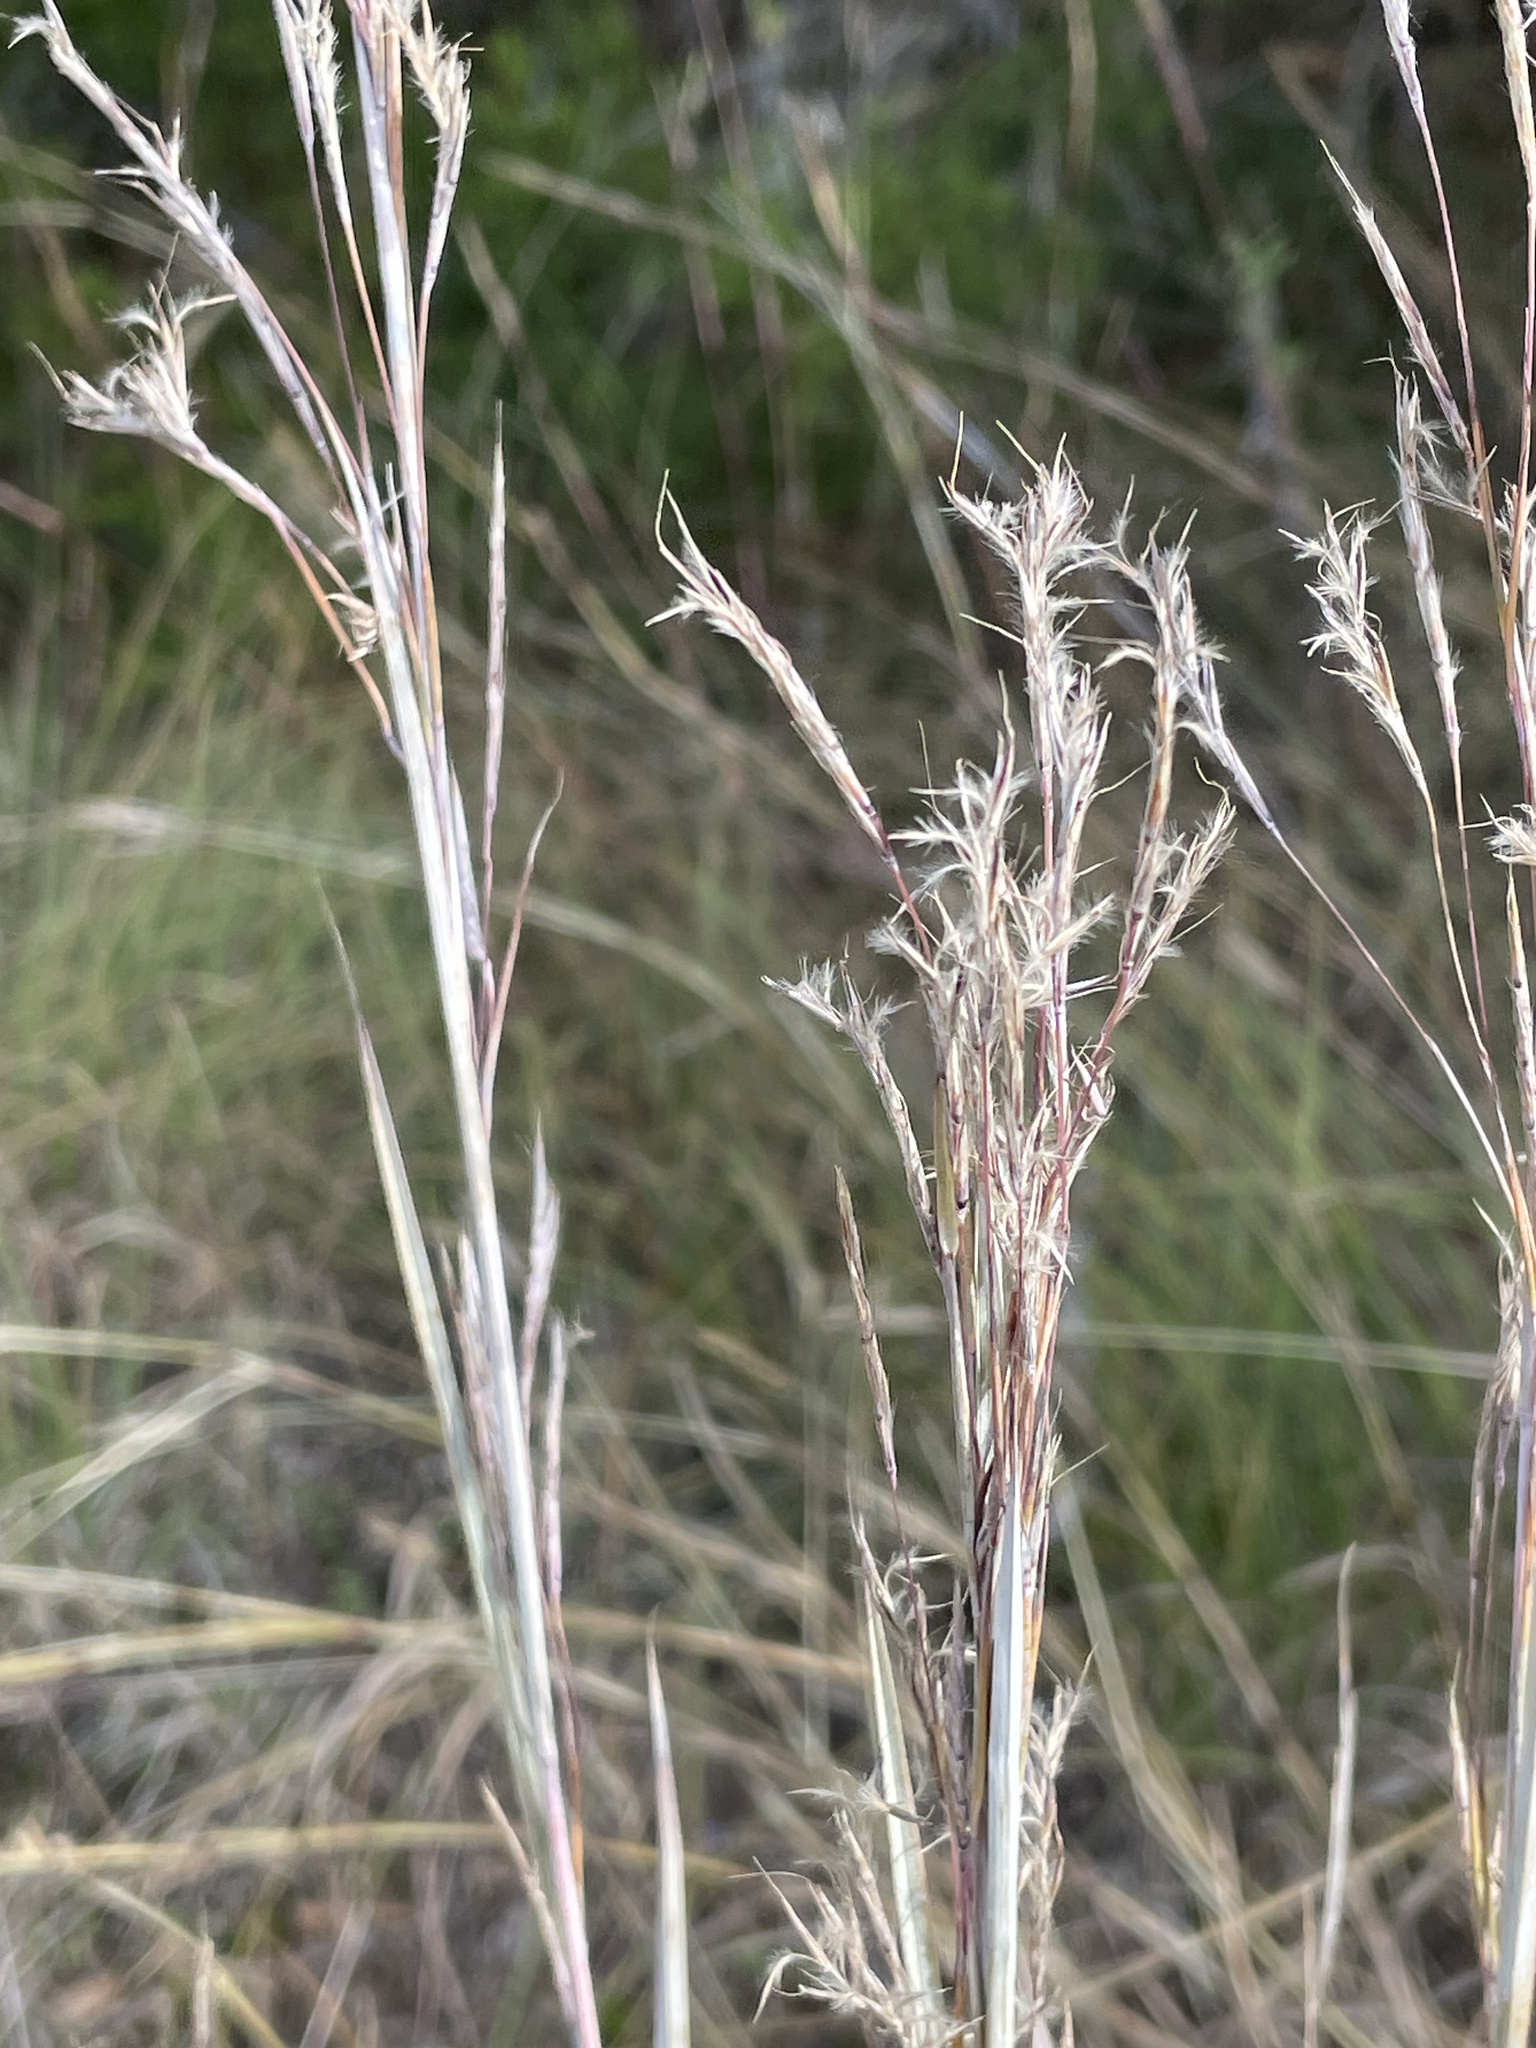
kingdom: Plantae
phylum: Tracheophyta
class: Liliopsida
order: Poales
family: Poaceae
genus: Schizachyrium
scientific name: Schizachyrium scoparium
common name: Little bluestem
